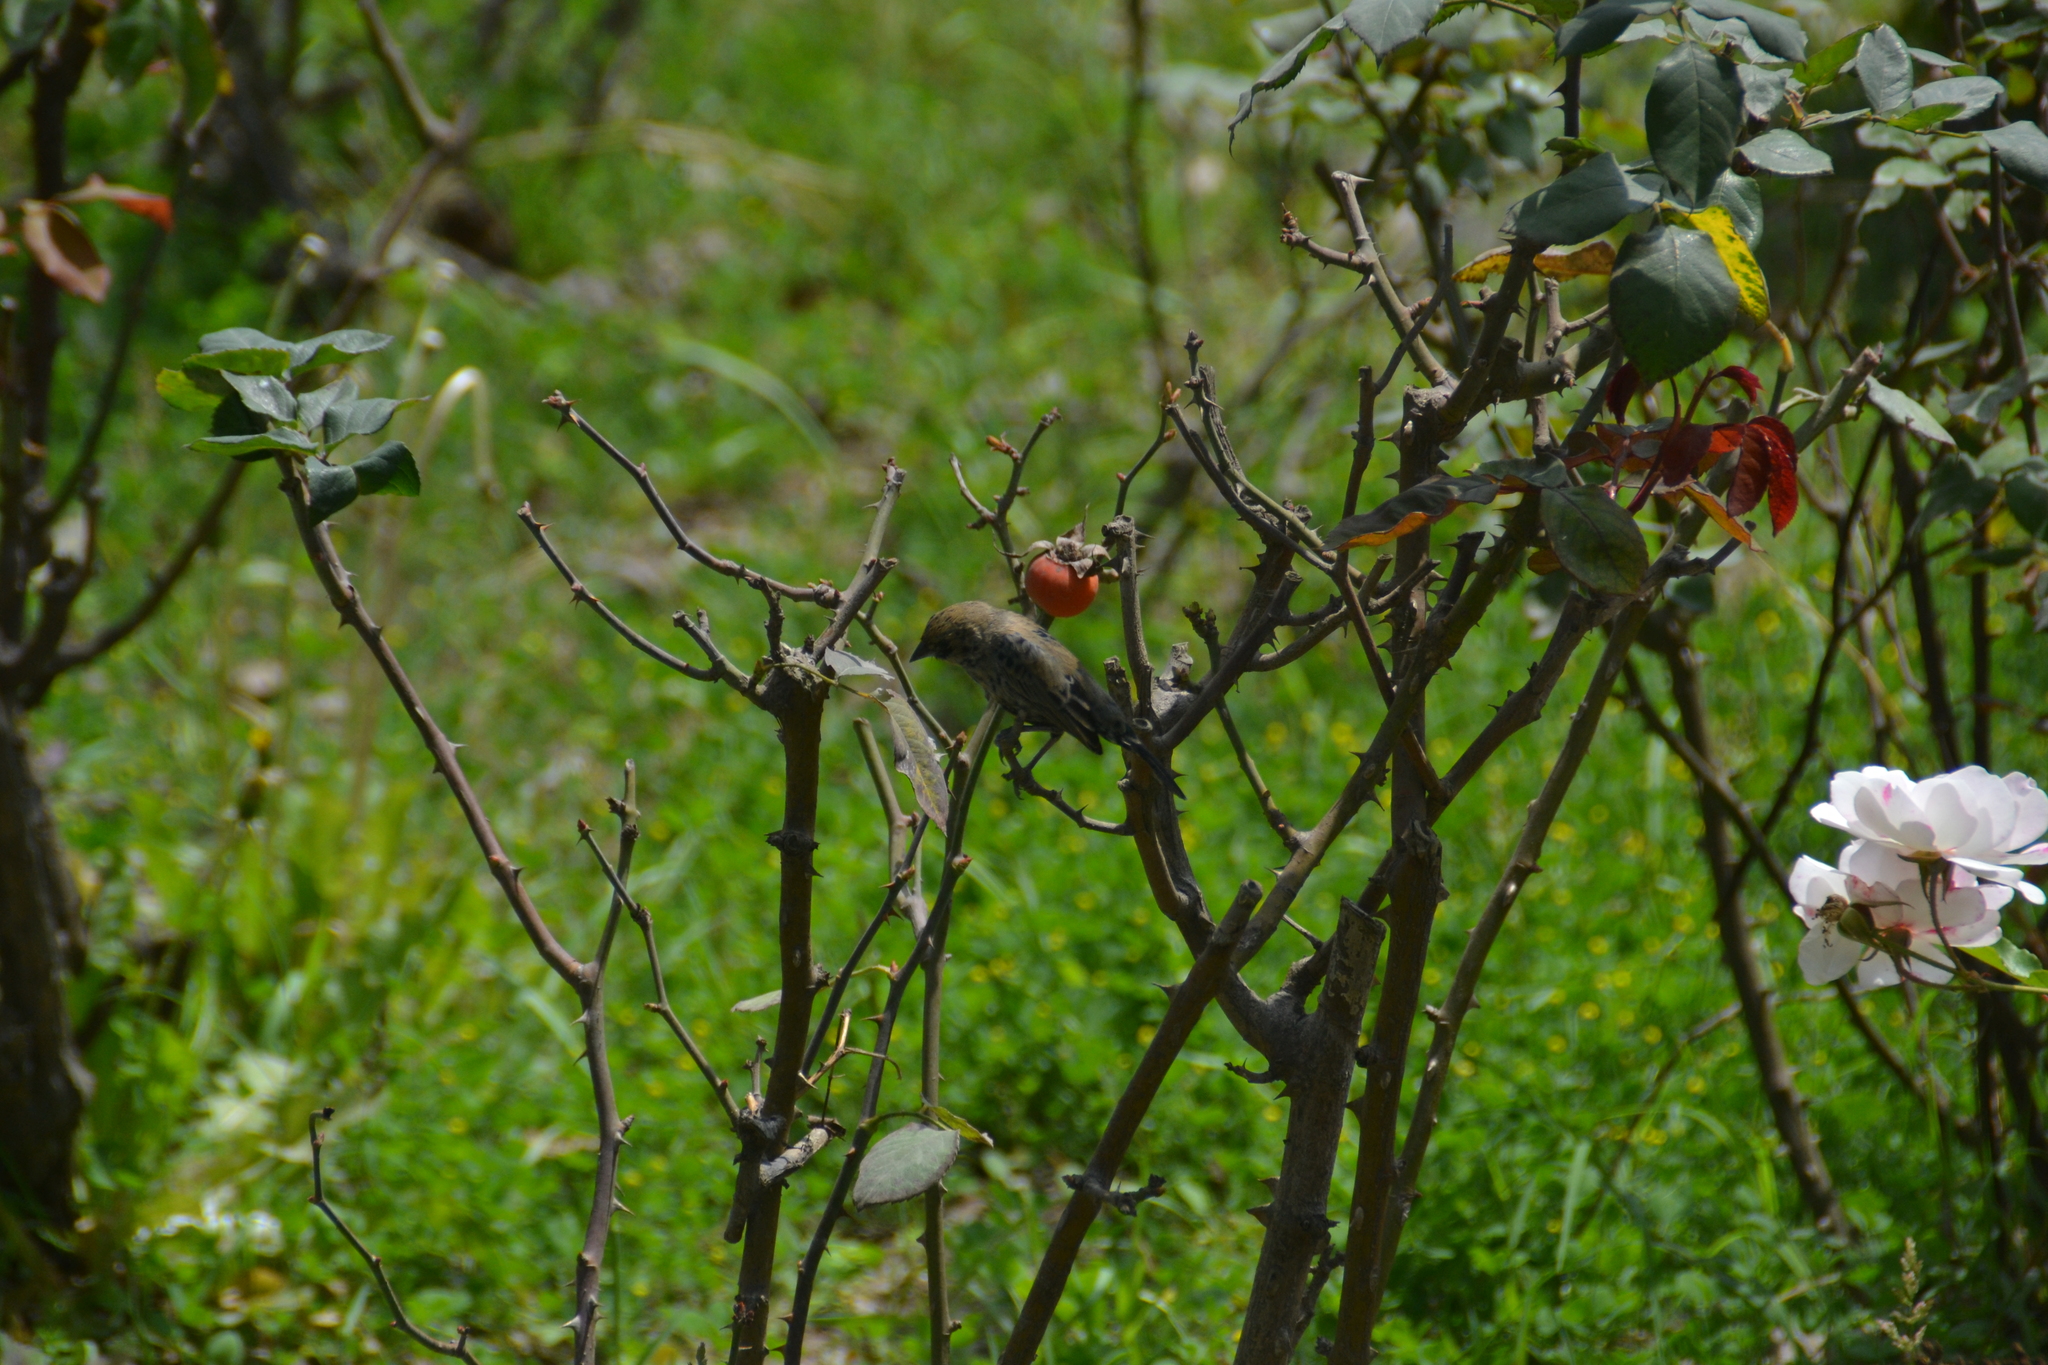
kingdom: Animalia
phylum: Chordata
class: Aves
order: Passeriformes
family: Thraupidae
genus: Volatinia
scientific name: Volatinia jacarina
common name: Blue-black grassquit
